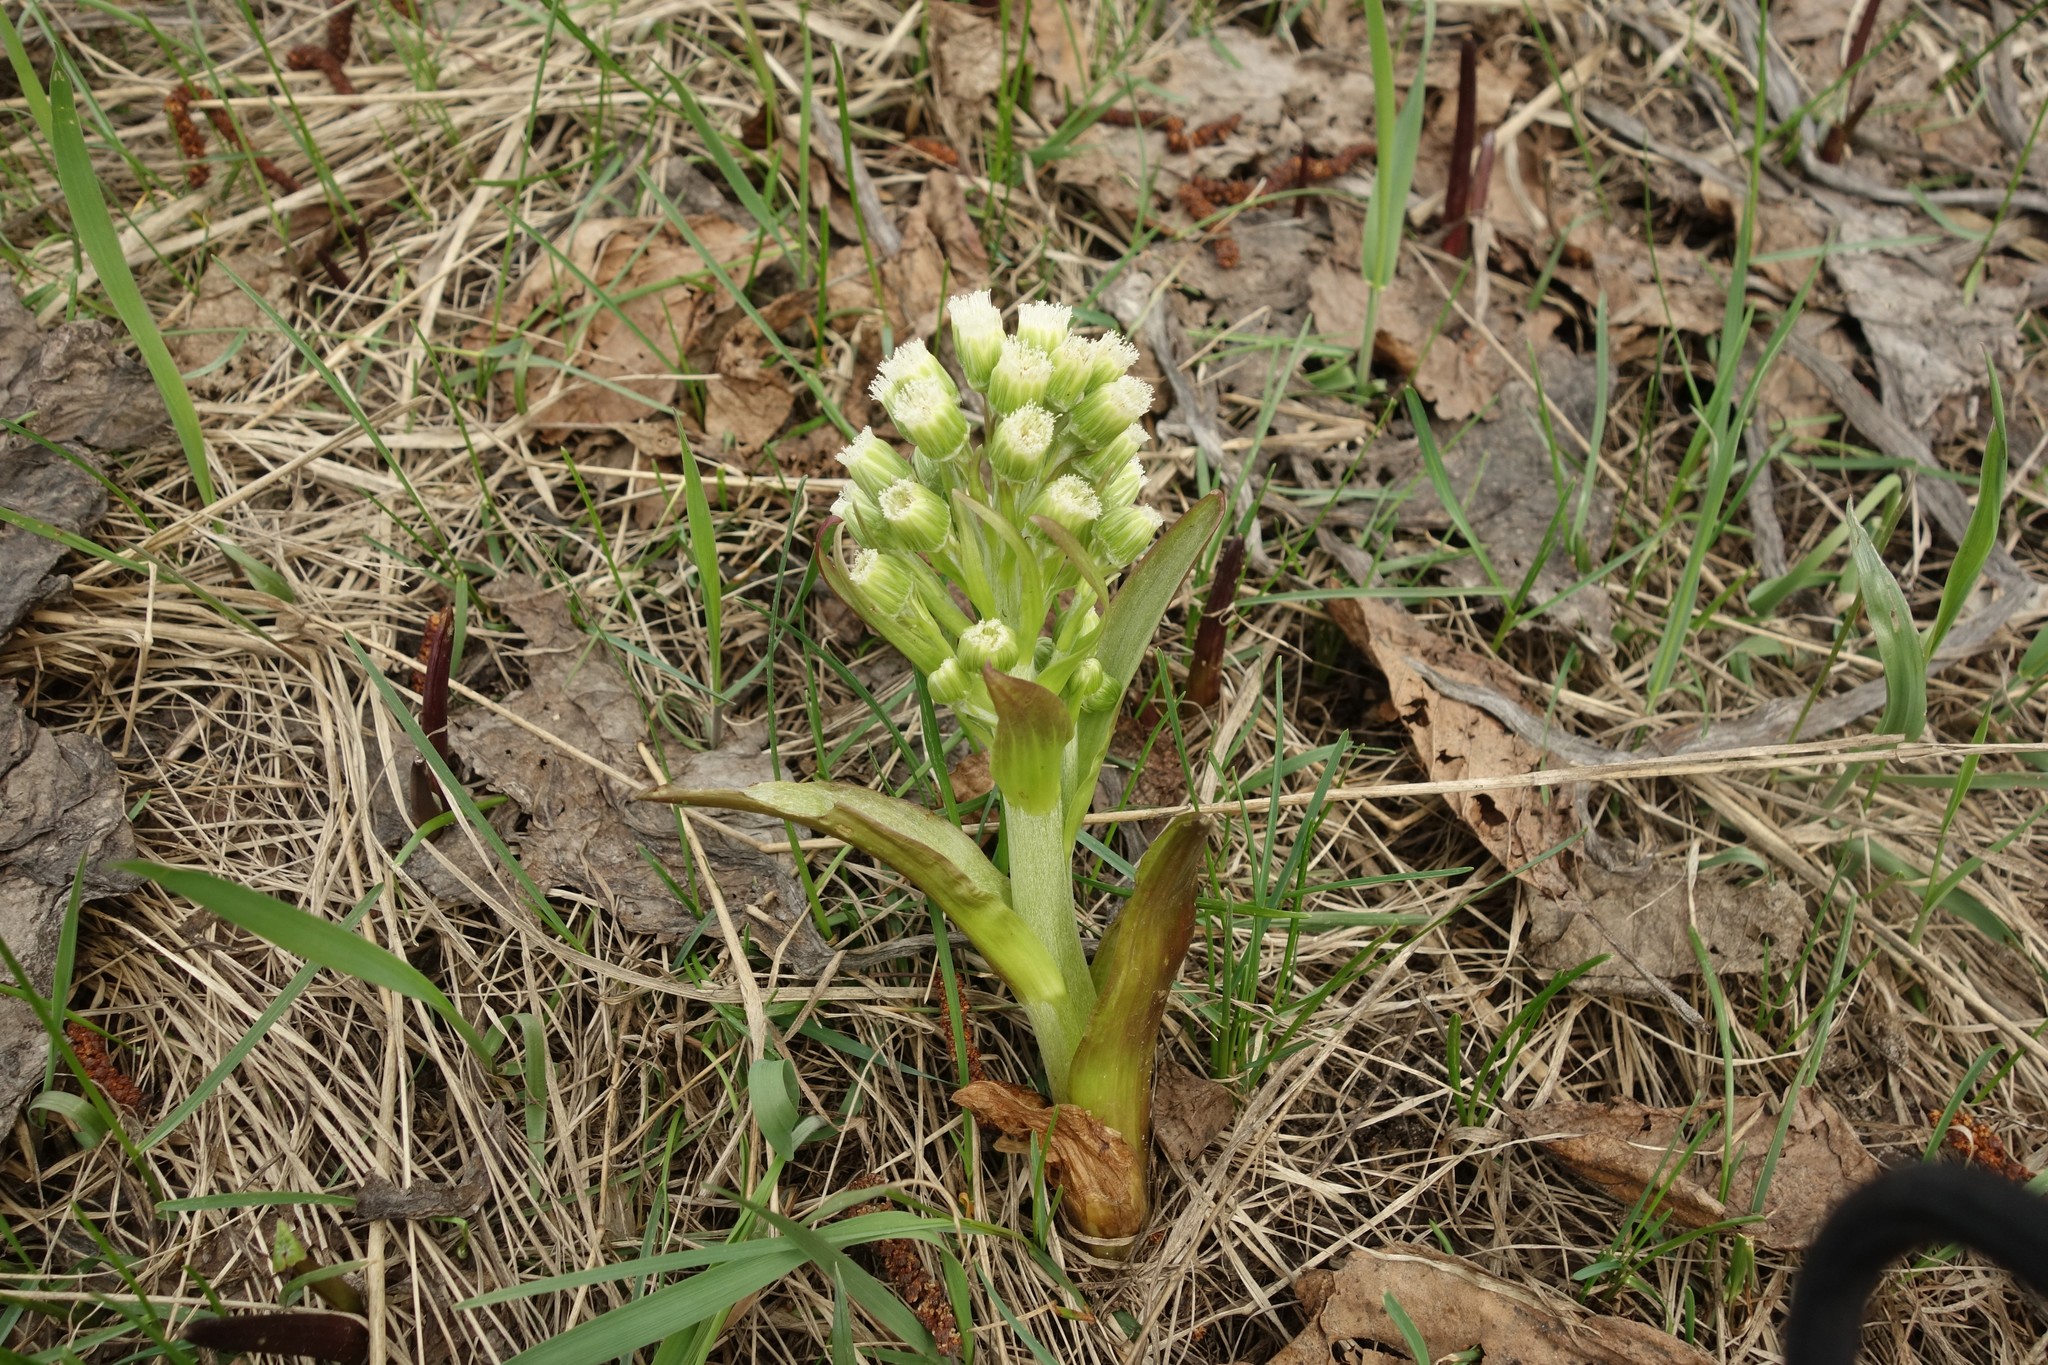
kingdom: Plantae
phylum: Tracheophyta
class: Magnoliopsida
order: Asterales
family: Asteraceae
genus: Petasites
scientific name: Petasites spurius
